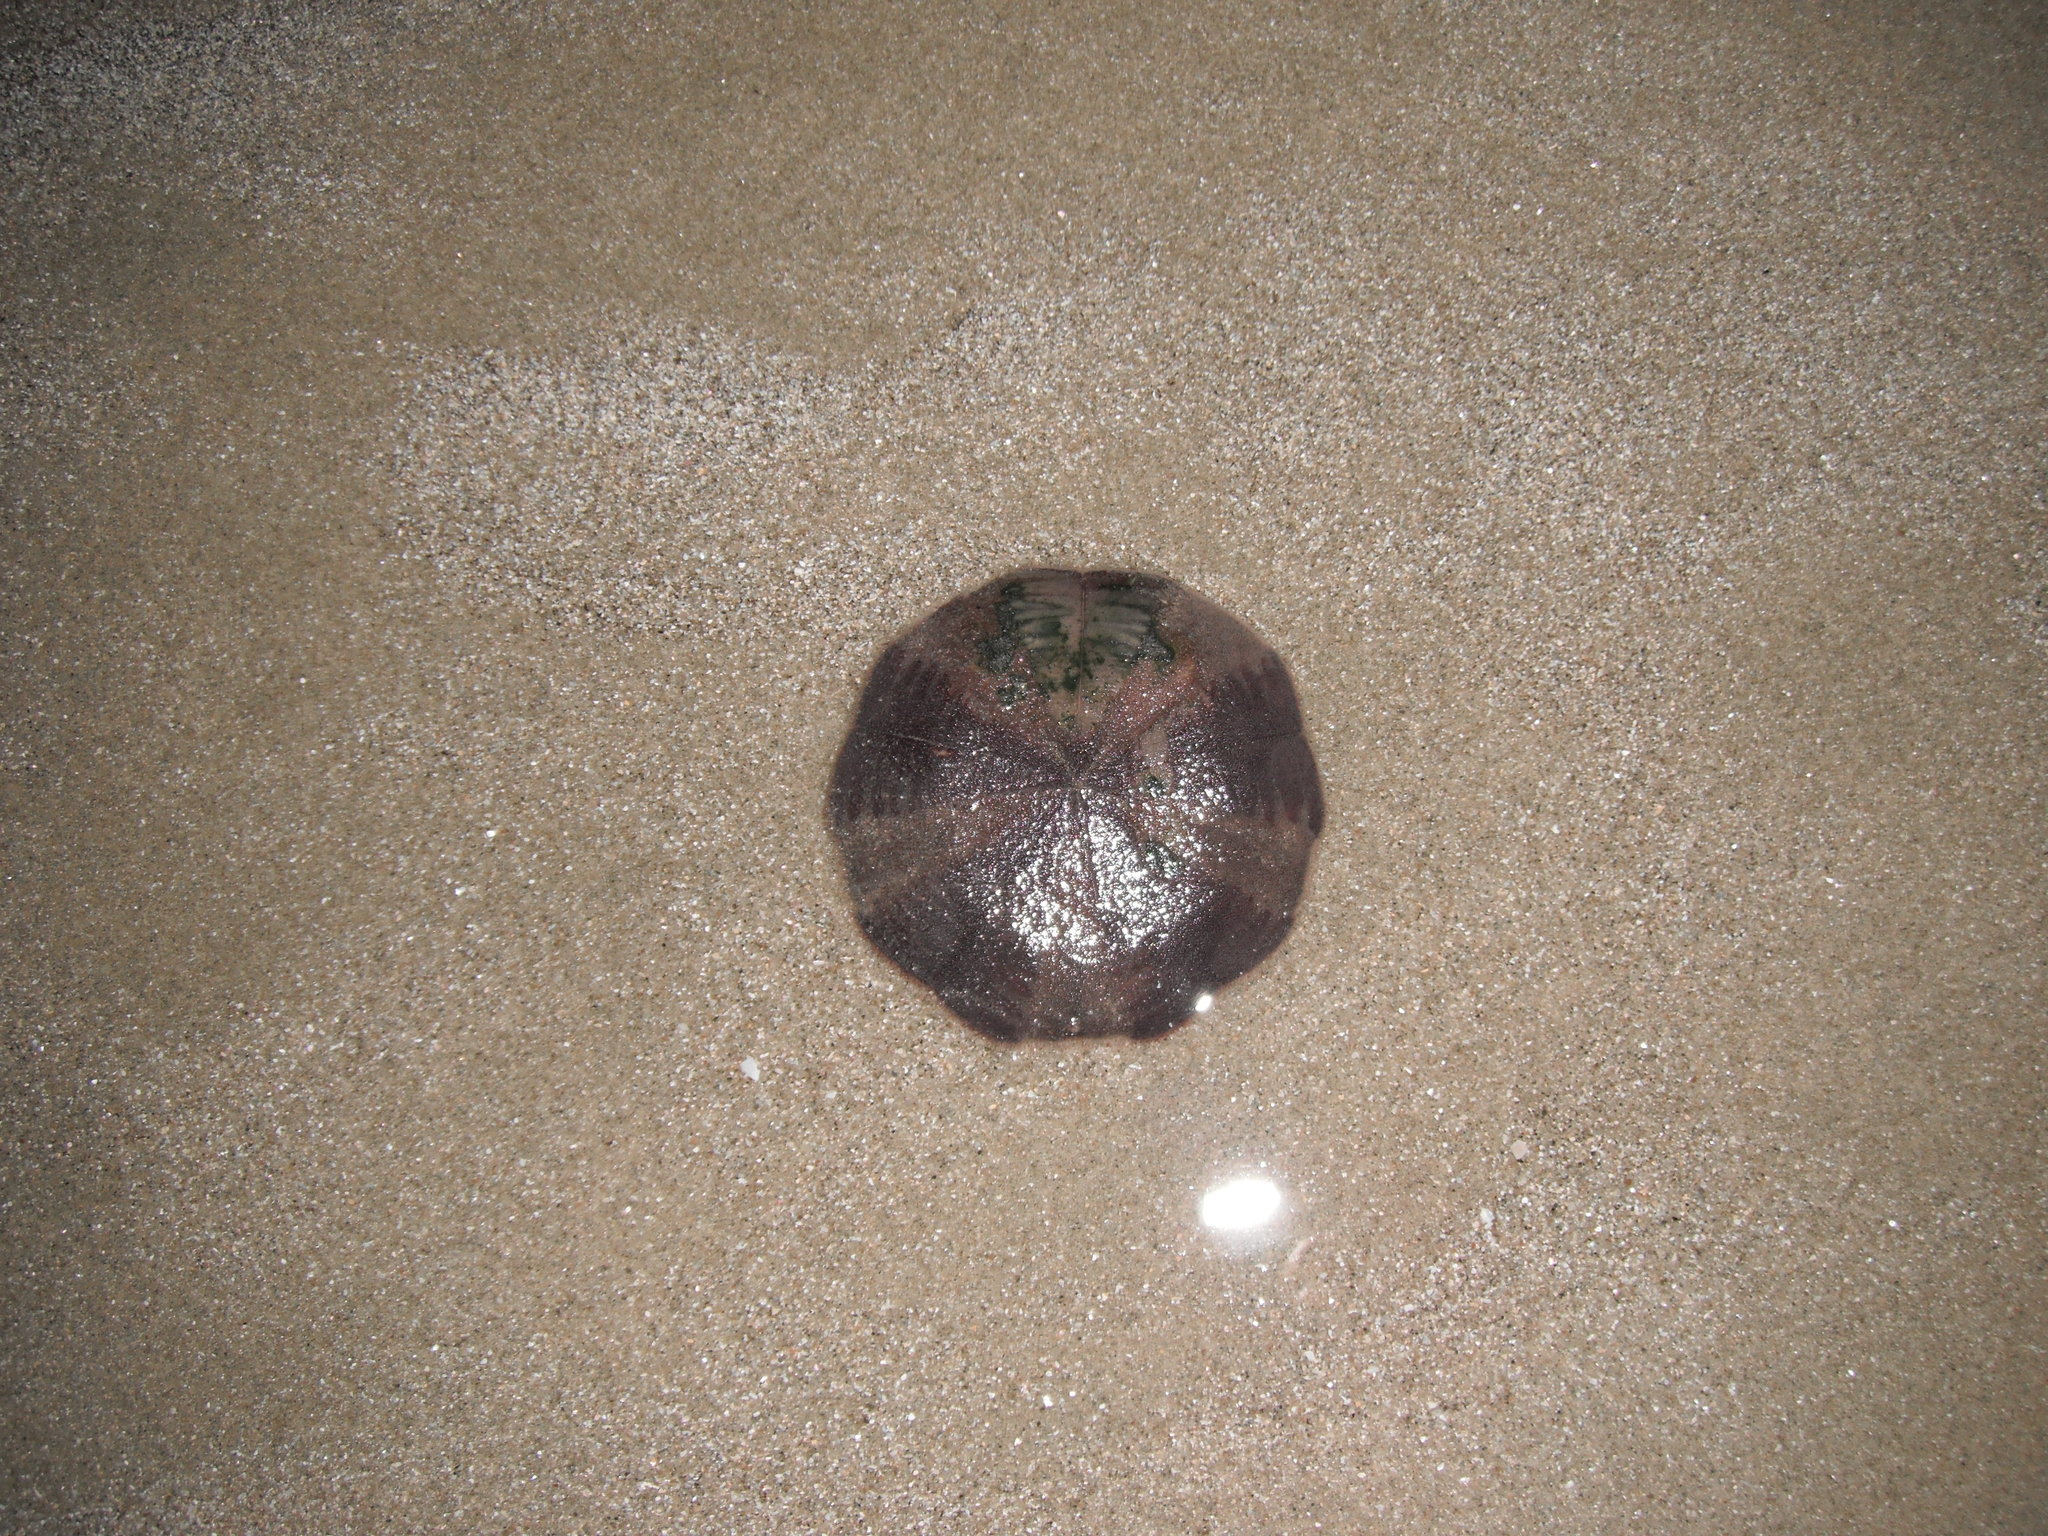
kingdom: Animalia
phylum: Echinodermata
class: Echinoidea
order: Clypeasteroida
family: Clypeasteridae
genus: Fellaster
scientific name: Fellaster zelandiae
